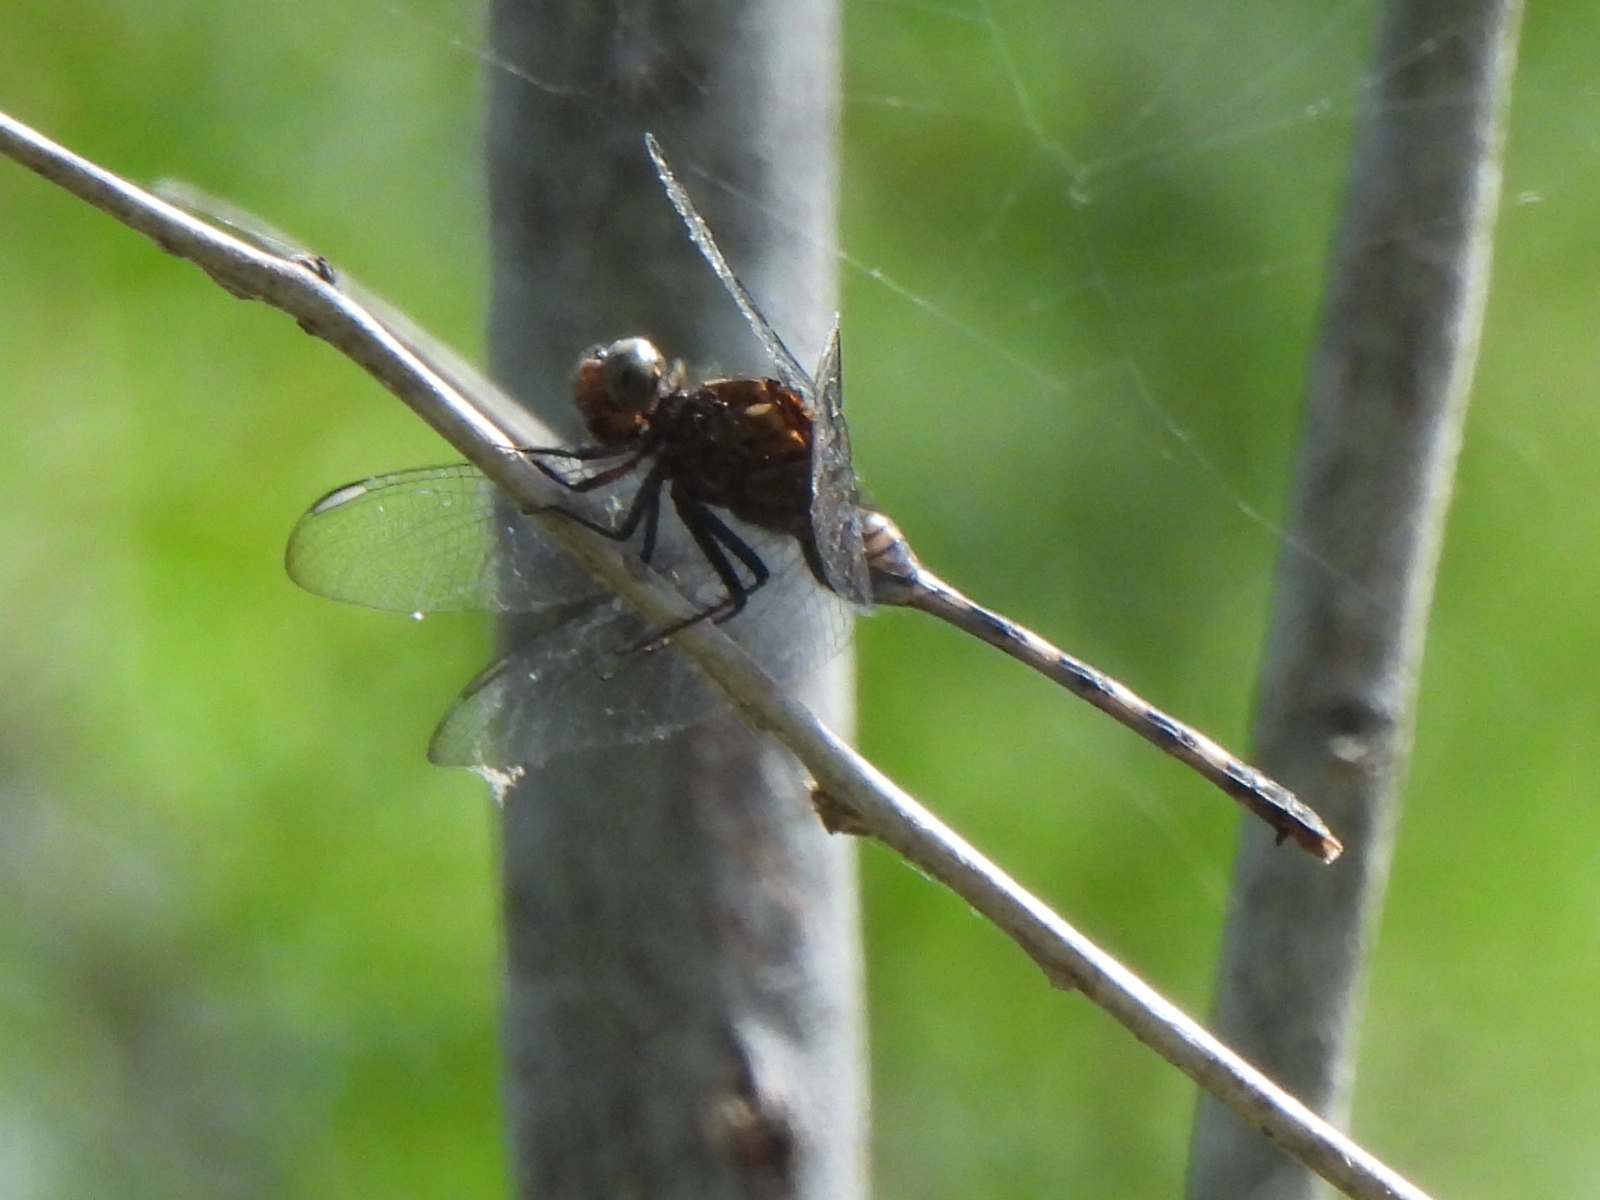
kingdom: Animalia
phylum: Arthropoda
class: Insecta
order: Odonata
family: Libellulidae
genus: Erythemis
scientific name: Erythemis plebeja
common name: Pin-tailed pondhawk
